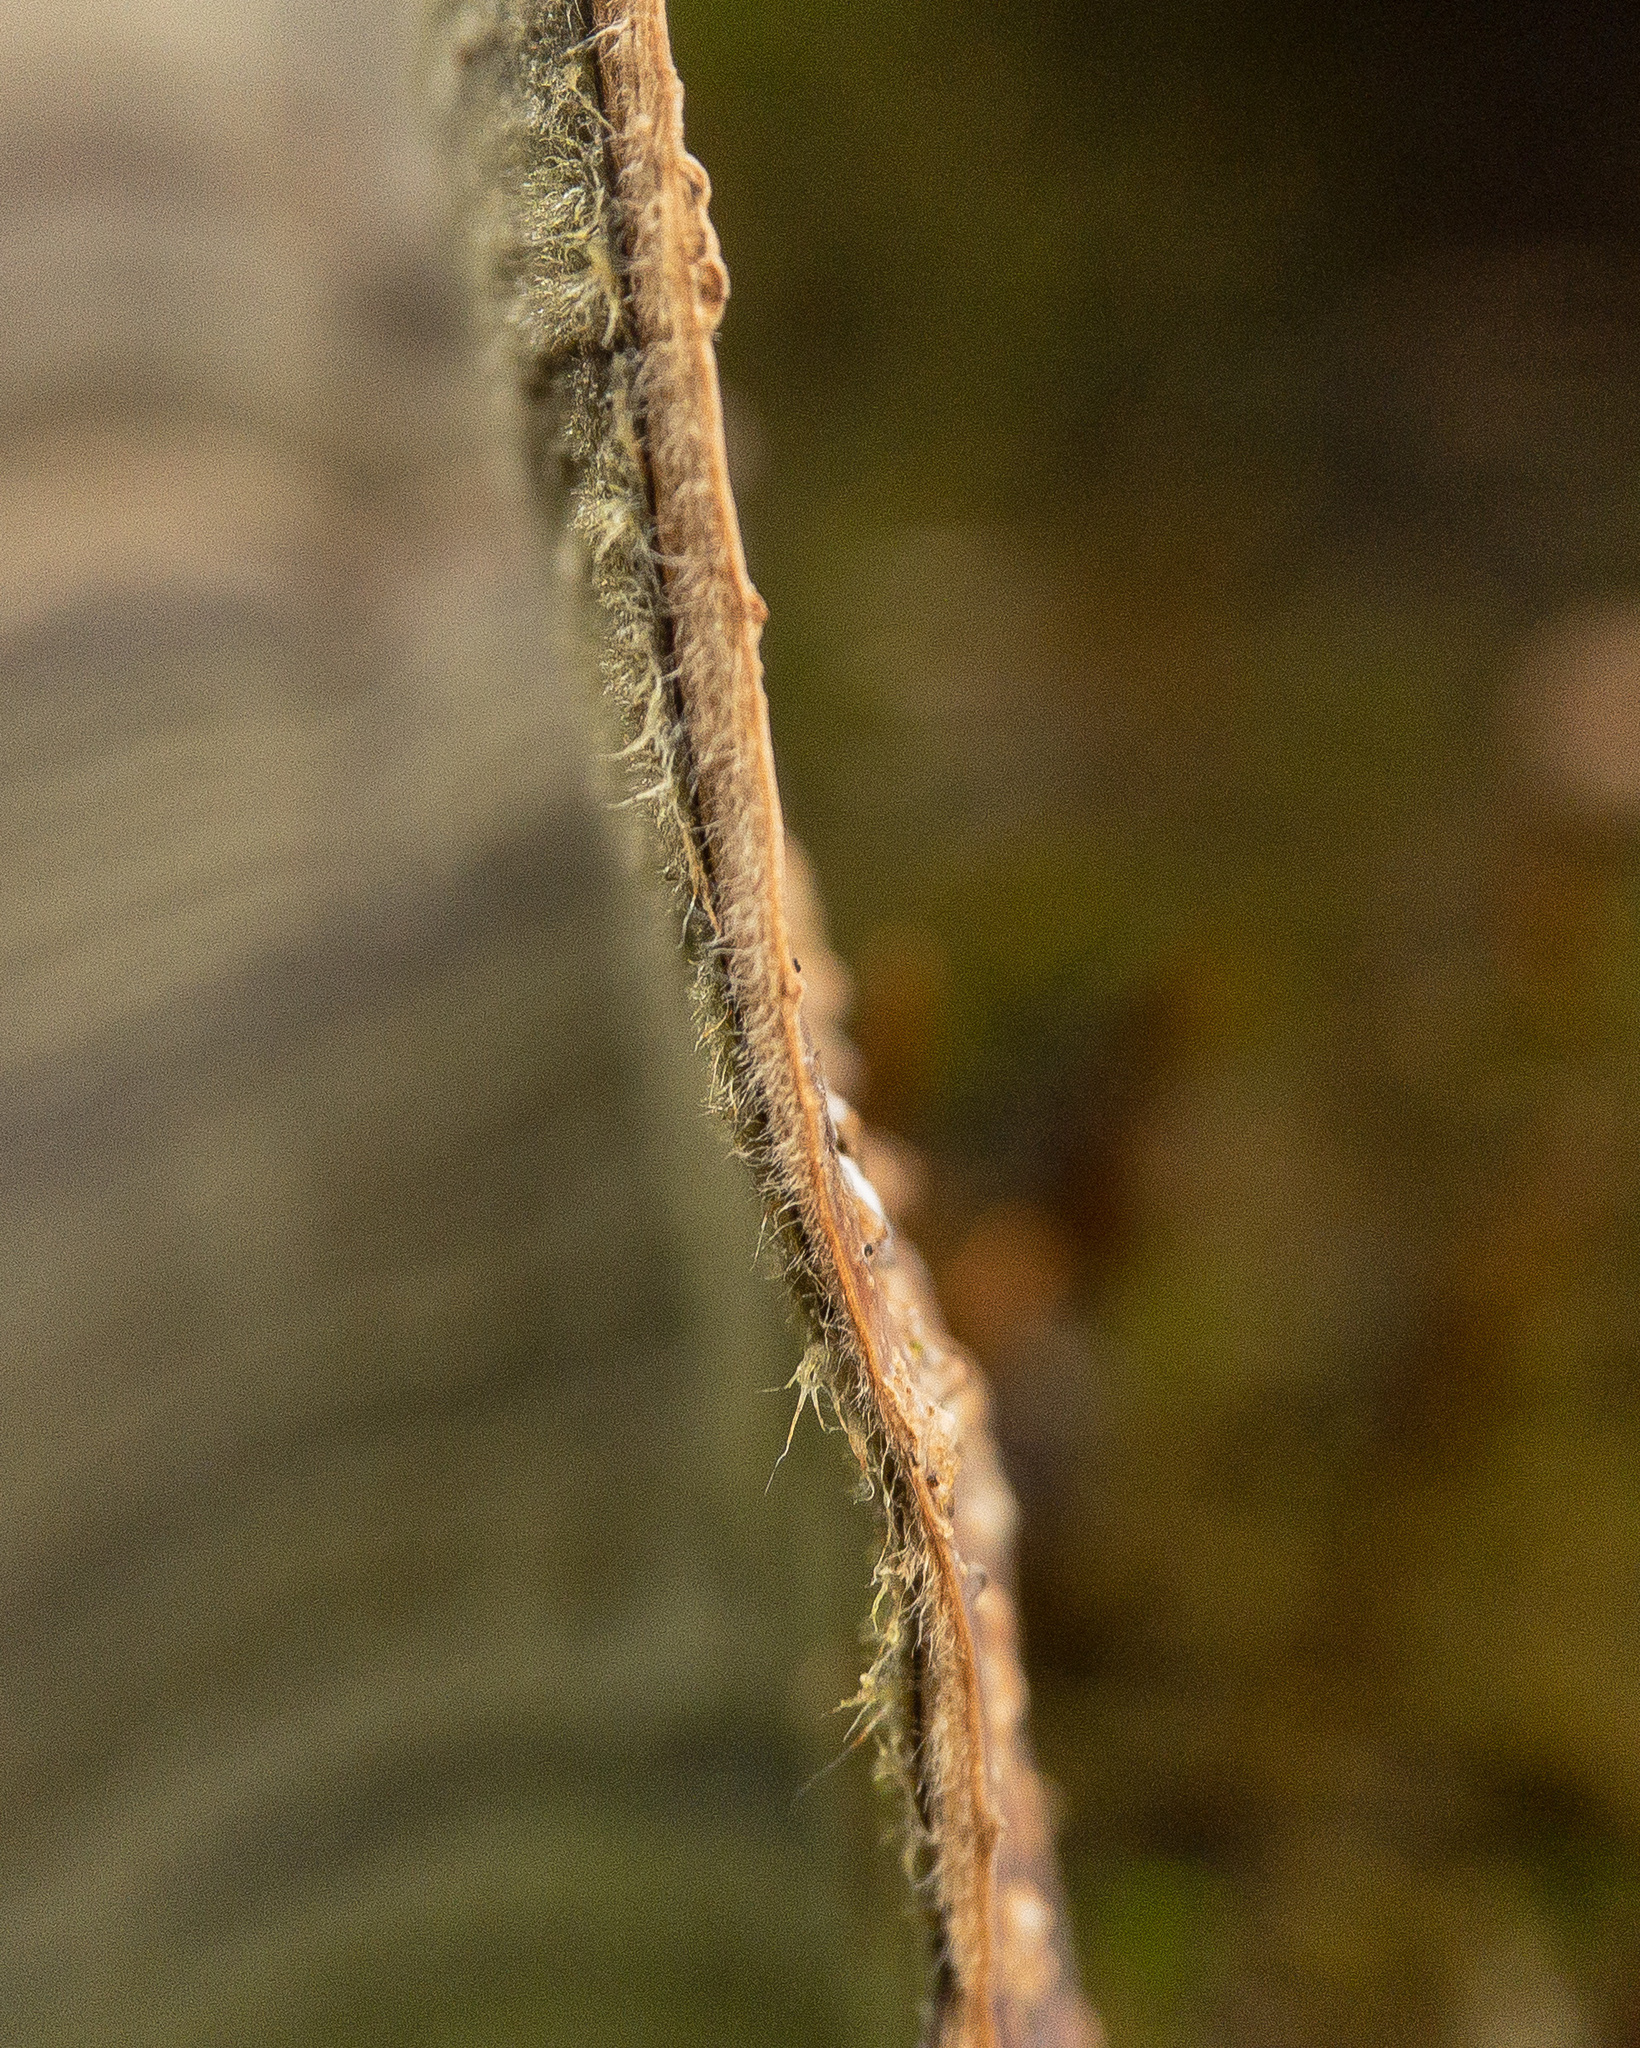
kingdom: Fungi
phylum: Basidiomycota
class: Agaricomycetes
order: Russulales
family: Stereaceae
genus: Stereum
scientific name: Stereum ostrea
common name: False turkeytail
